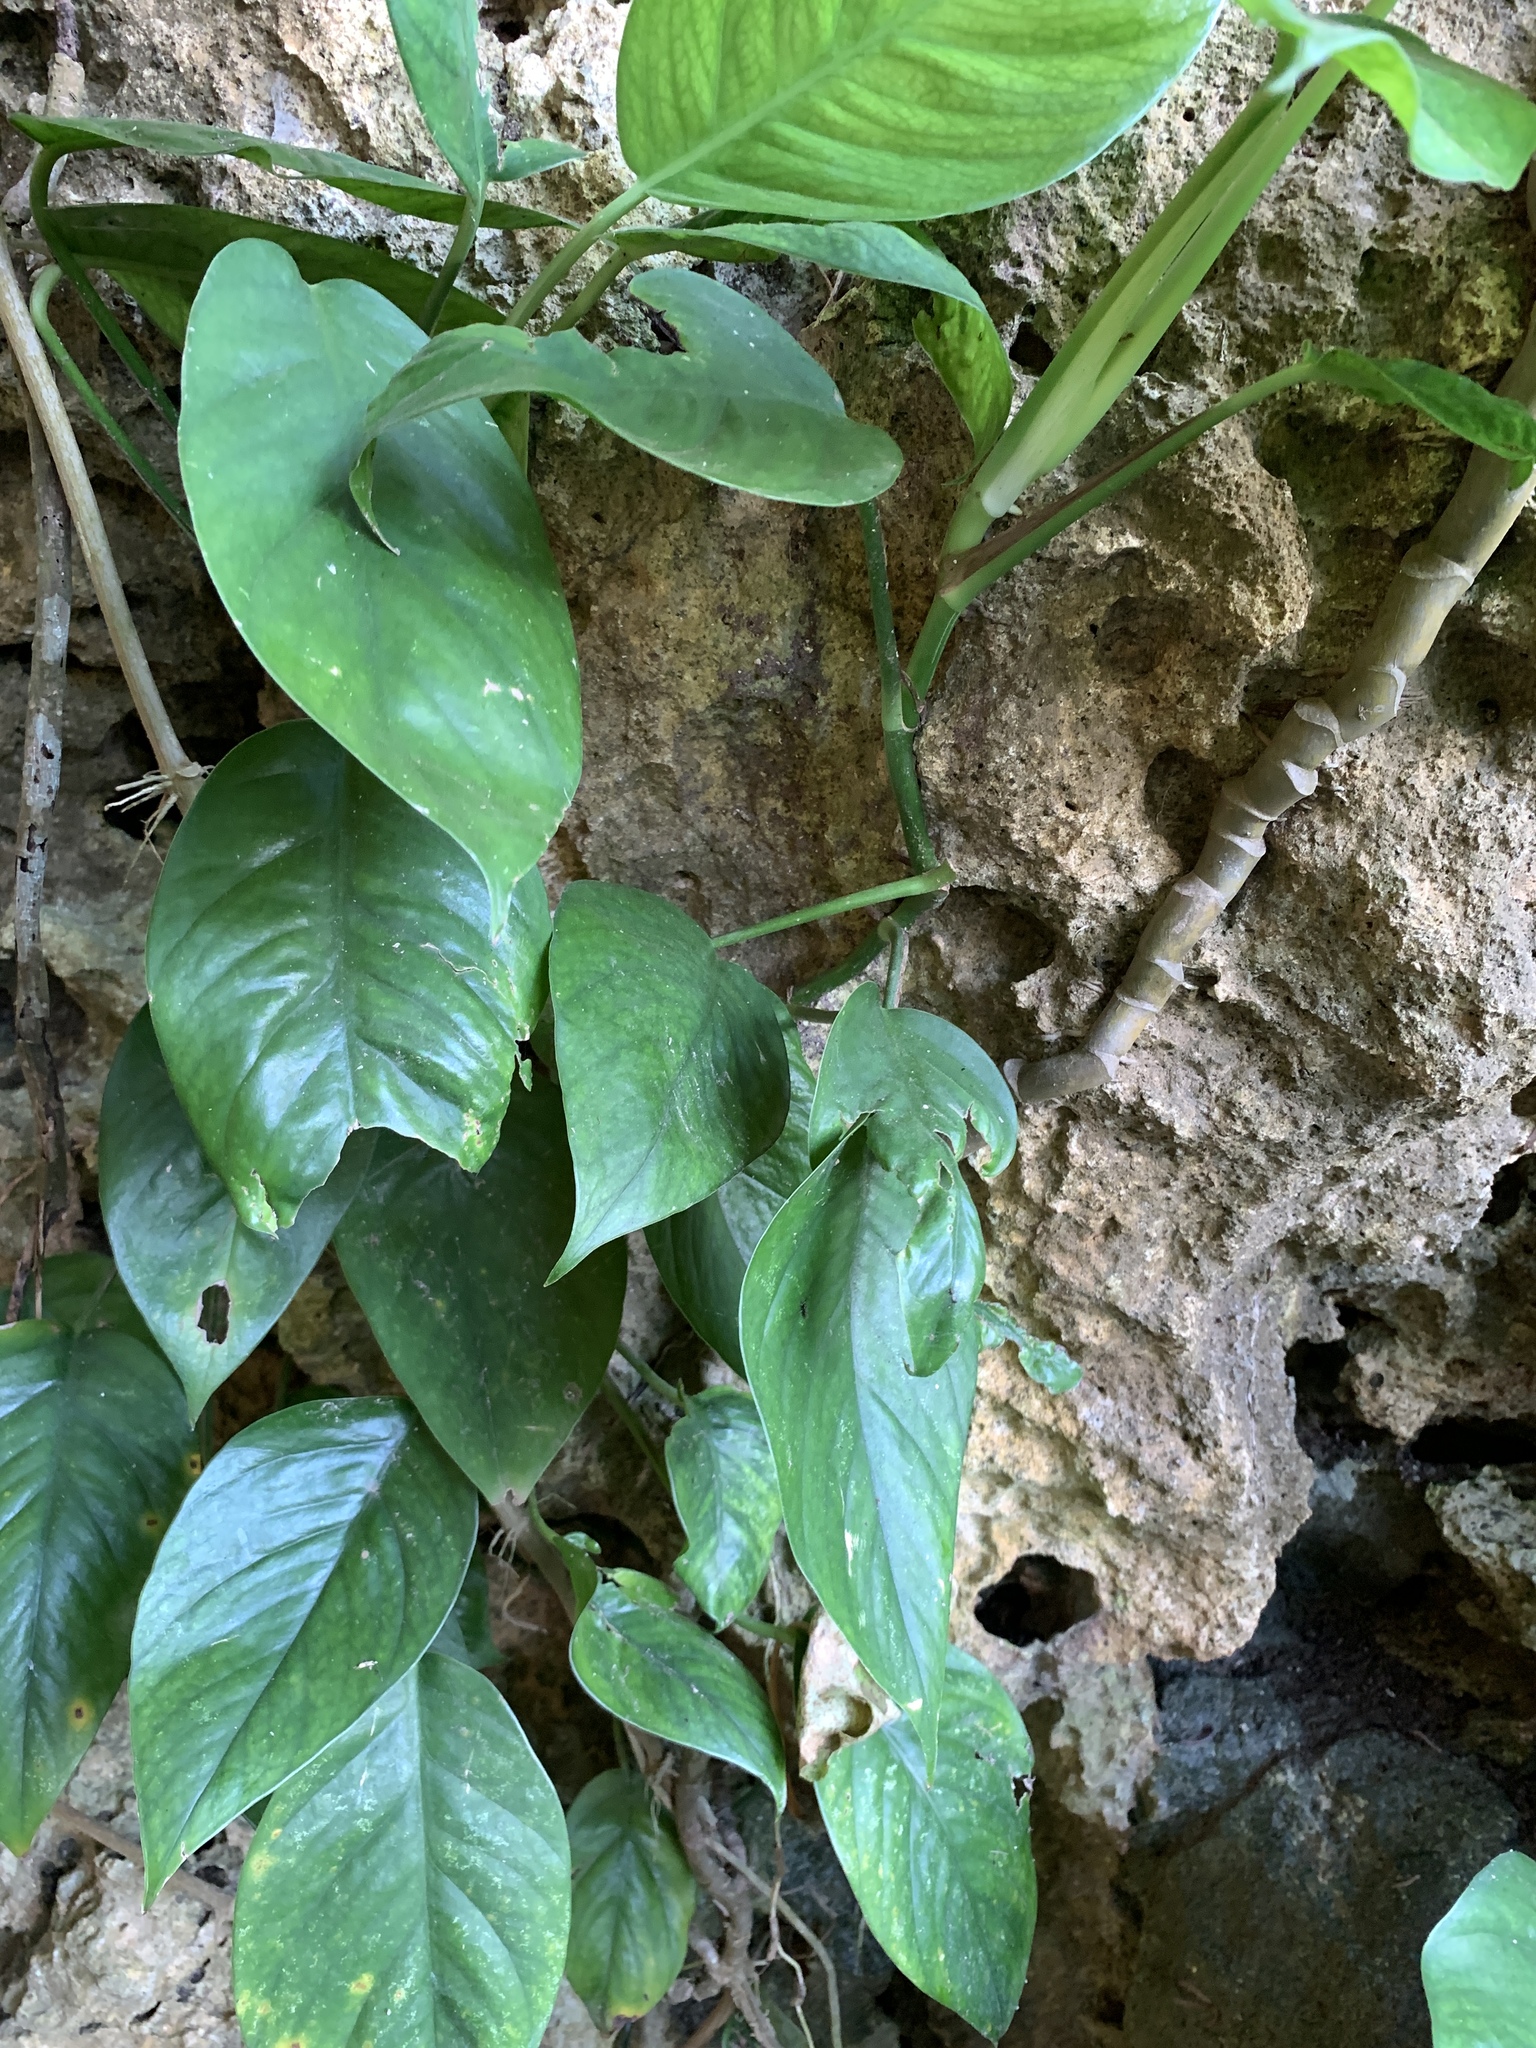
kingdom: Plantae
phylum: Tracheophyta
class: Liliopsida
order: Alismatales
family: Araceae
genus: Epipremnum
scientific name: Epipremnum pinnatum
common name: Centipede tongavine
